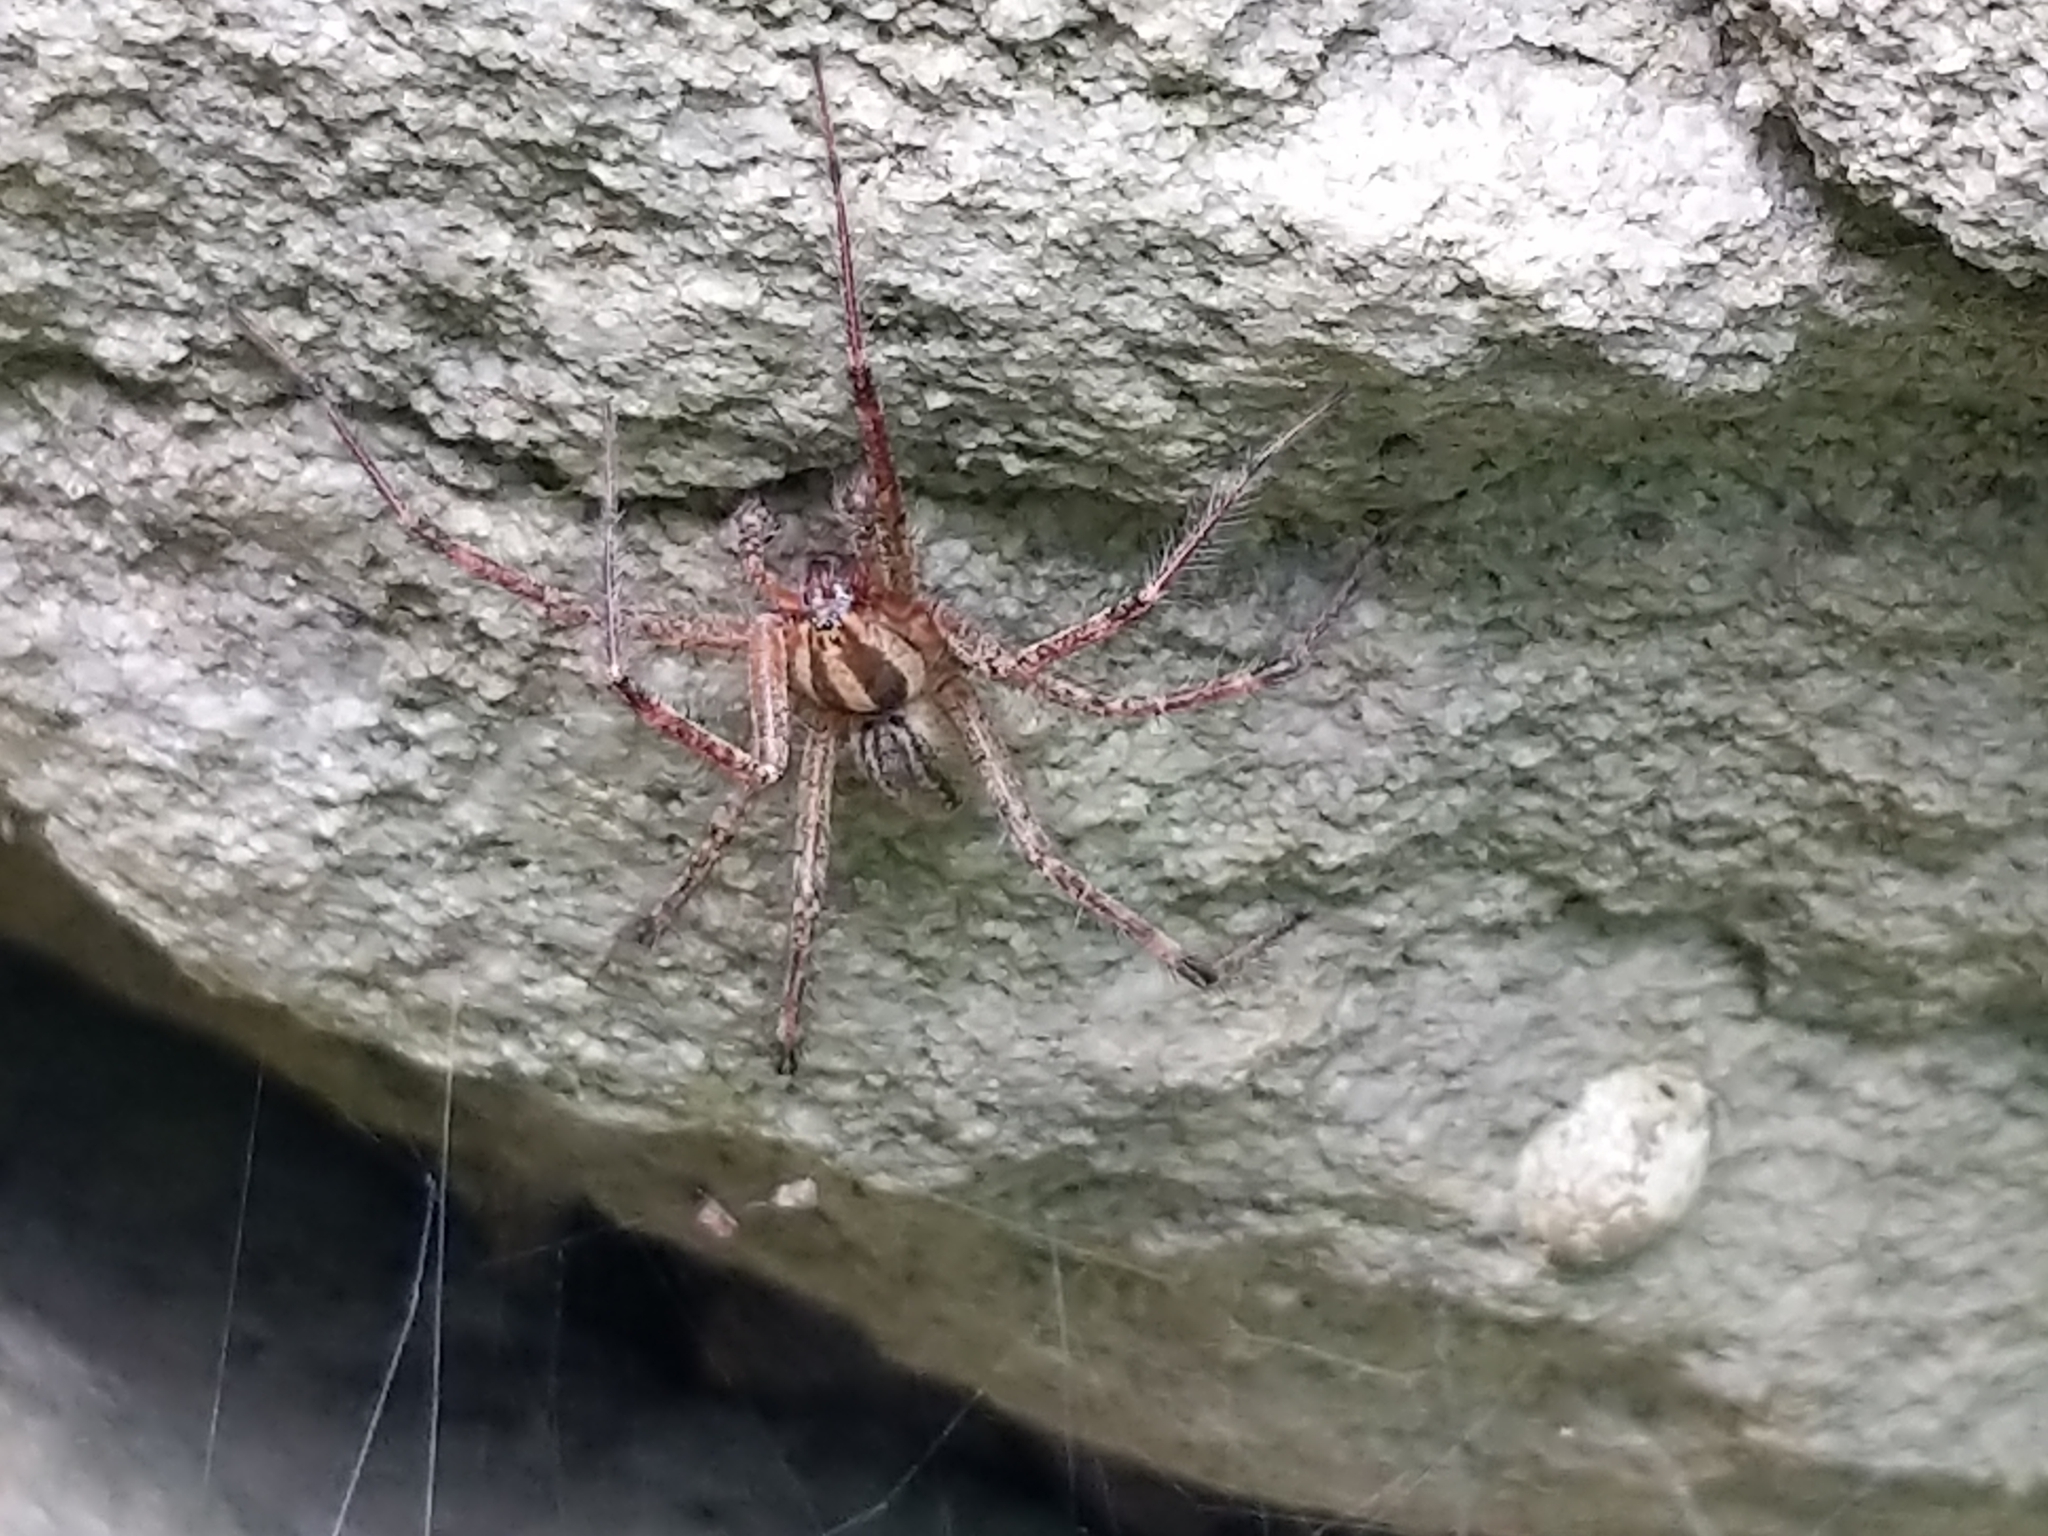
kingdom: Animalia
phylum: Arthropoda
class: Arachnida
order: Araneae
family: Agelenidae
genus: Agelenopsis
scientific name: Agelenopsis
